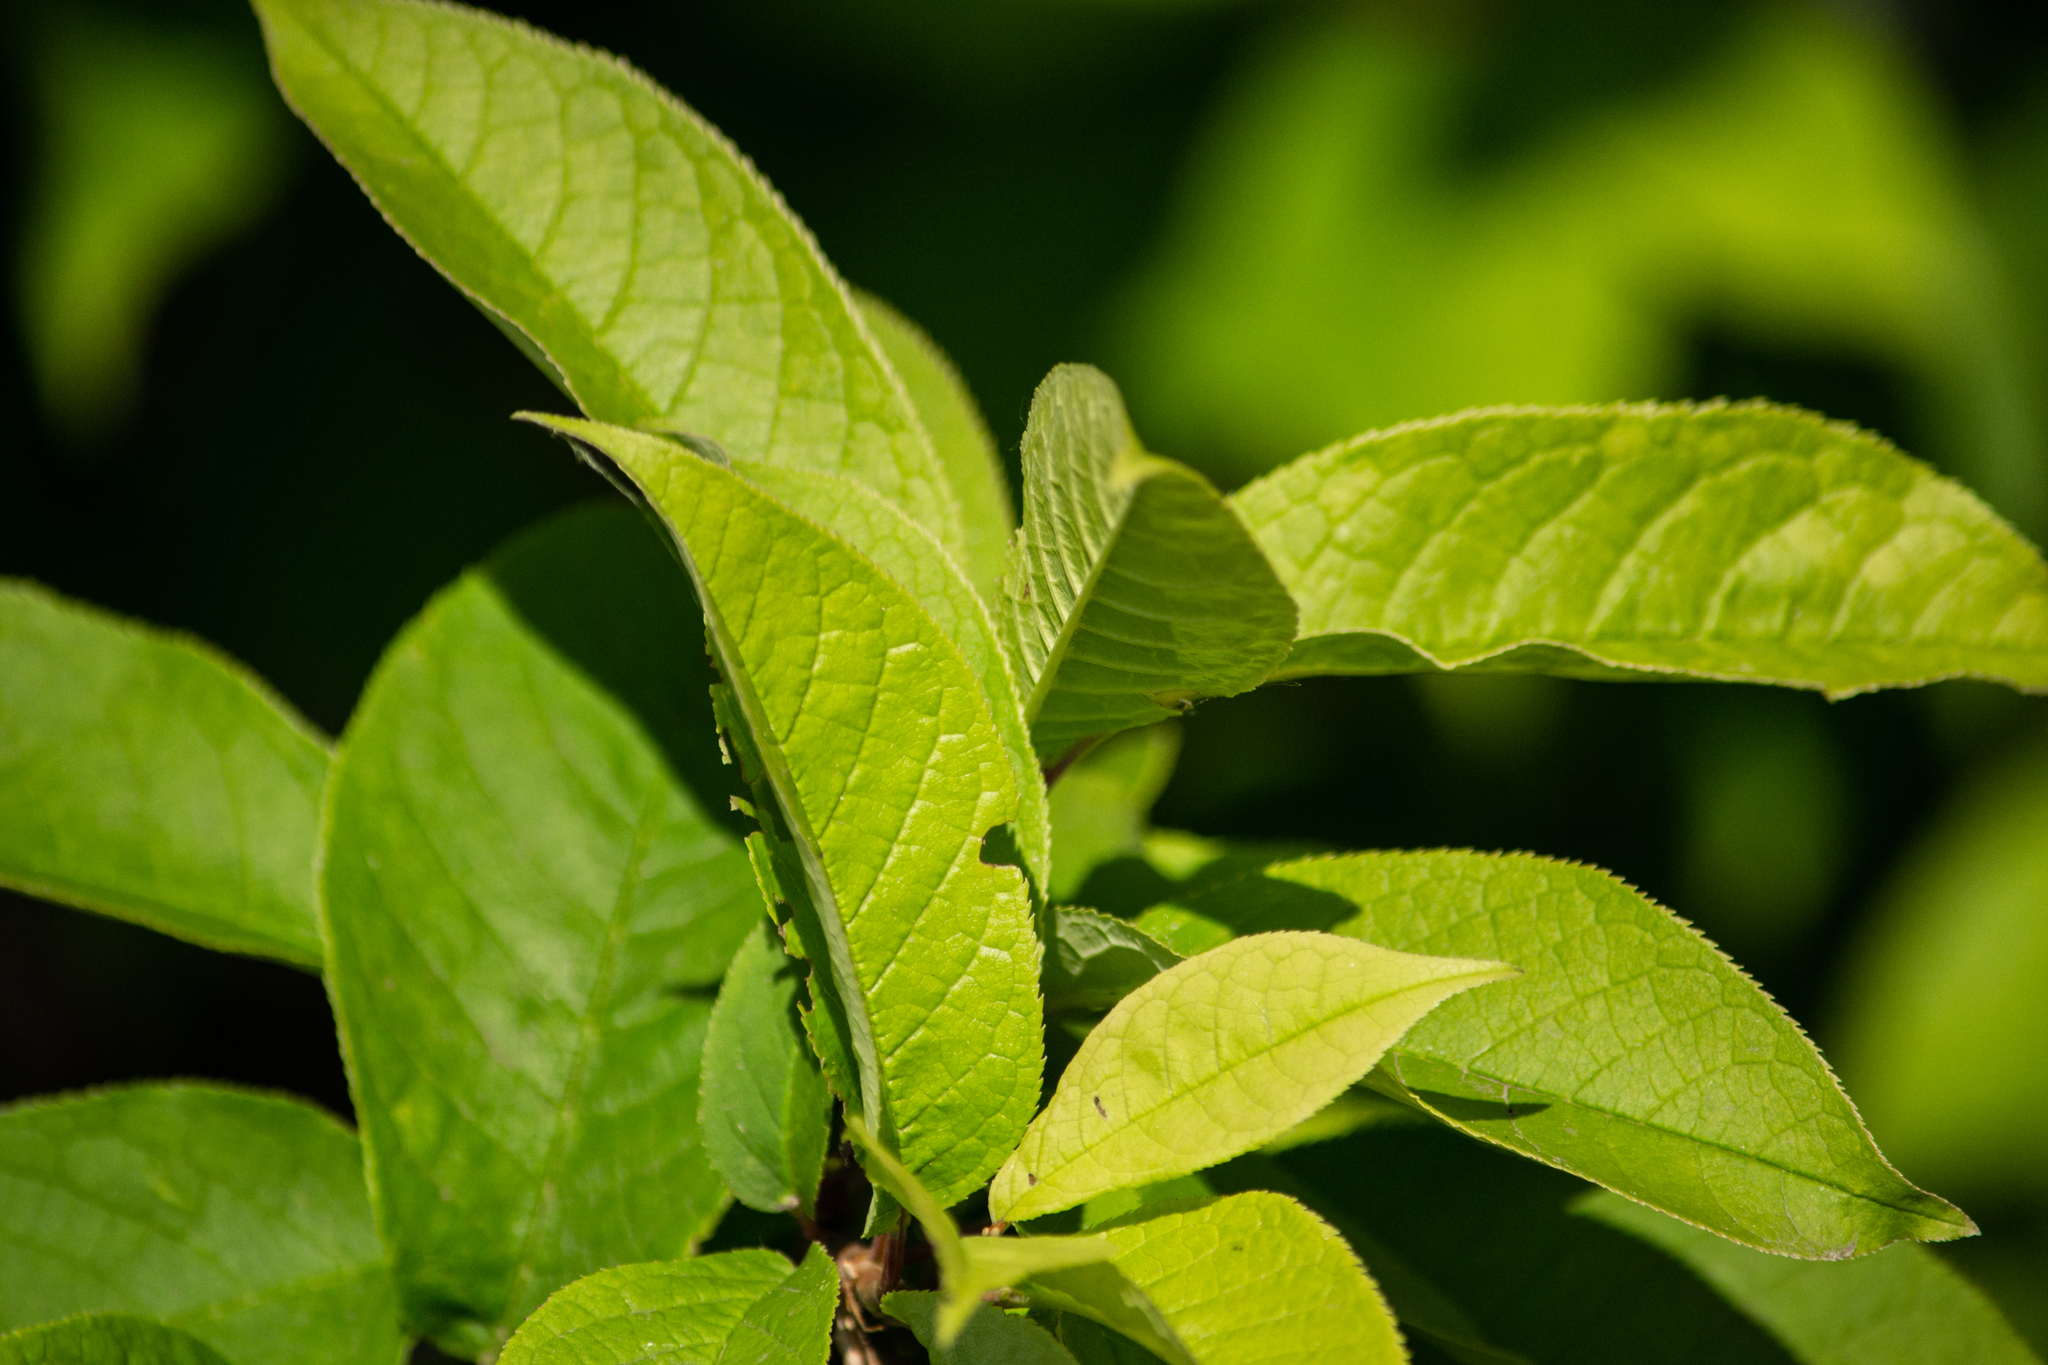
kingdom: Plantae
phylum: Tracheophyta
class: Magnoliopsida
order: Rosales
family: Rosaceae
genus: Prunus
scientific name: Prunus padus
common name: Bird cherry
